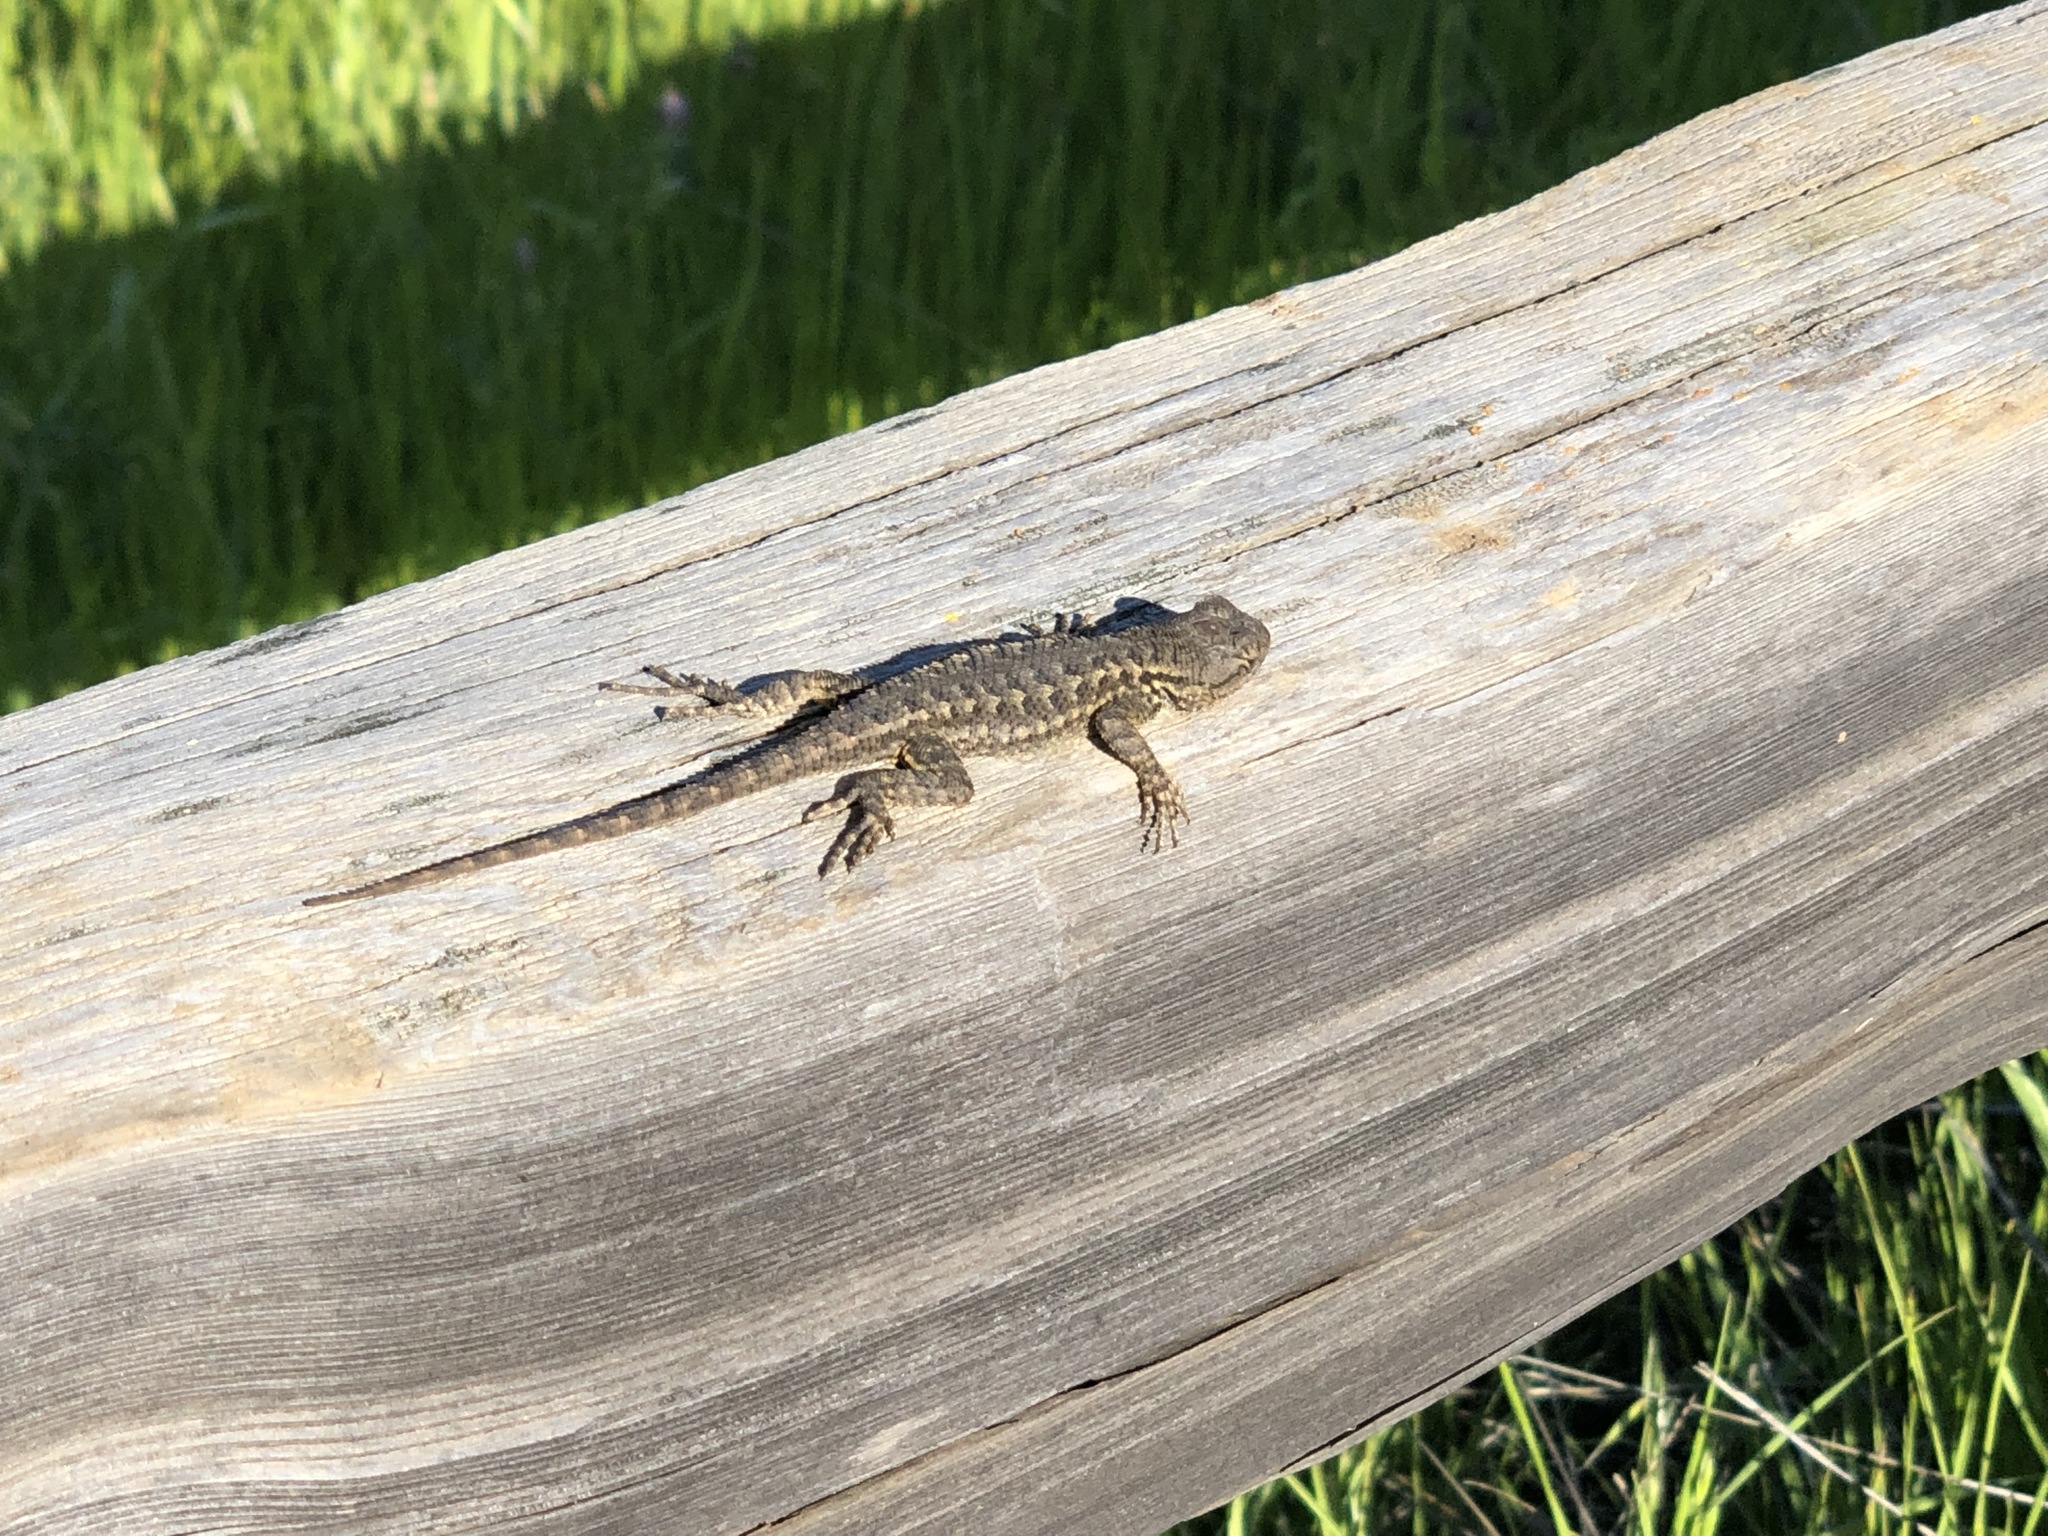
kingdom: Animalia
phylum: Chordata
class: Squamata
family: Phrynosomatidae
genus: Sceloporus
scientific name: Sceloporus occidentalis
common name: Western fence lizard
